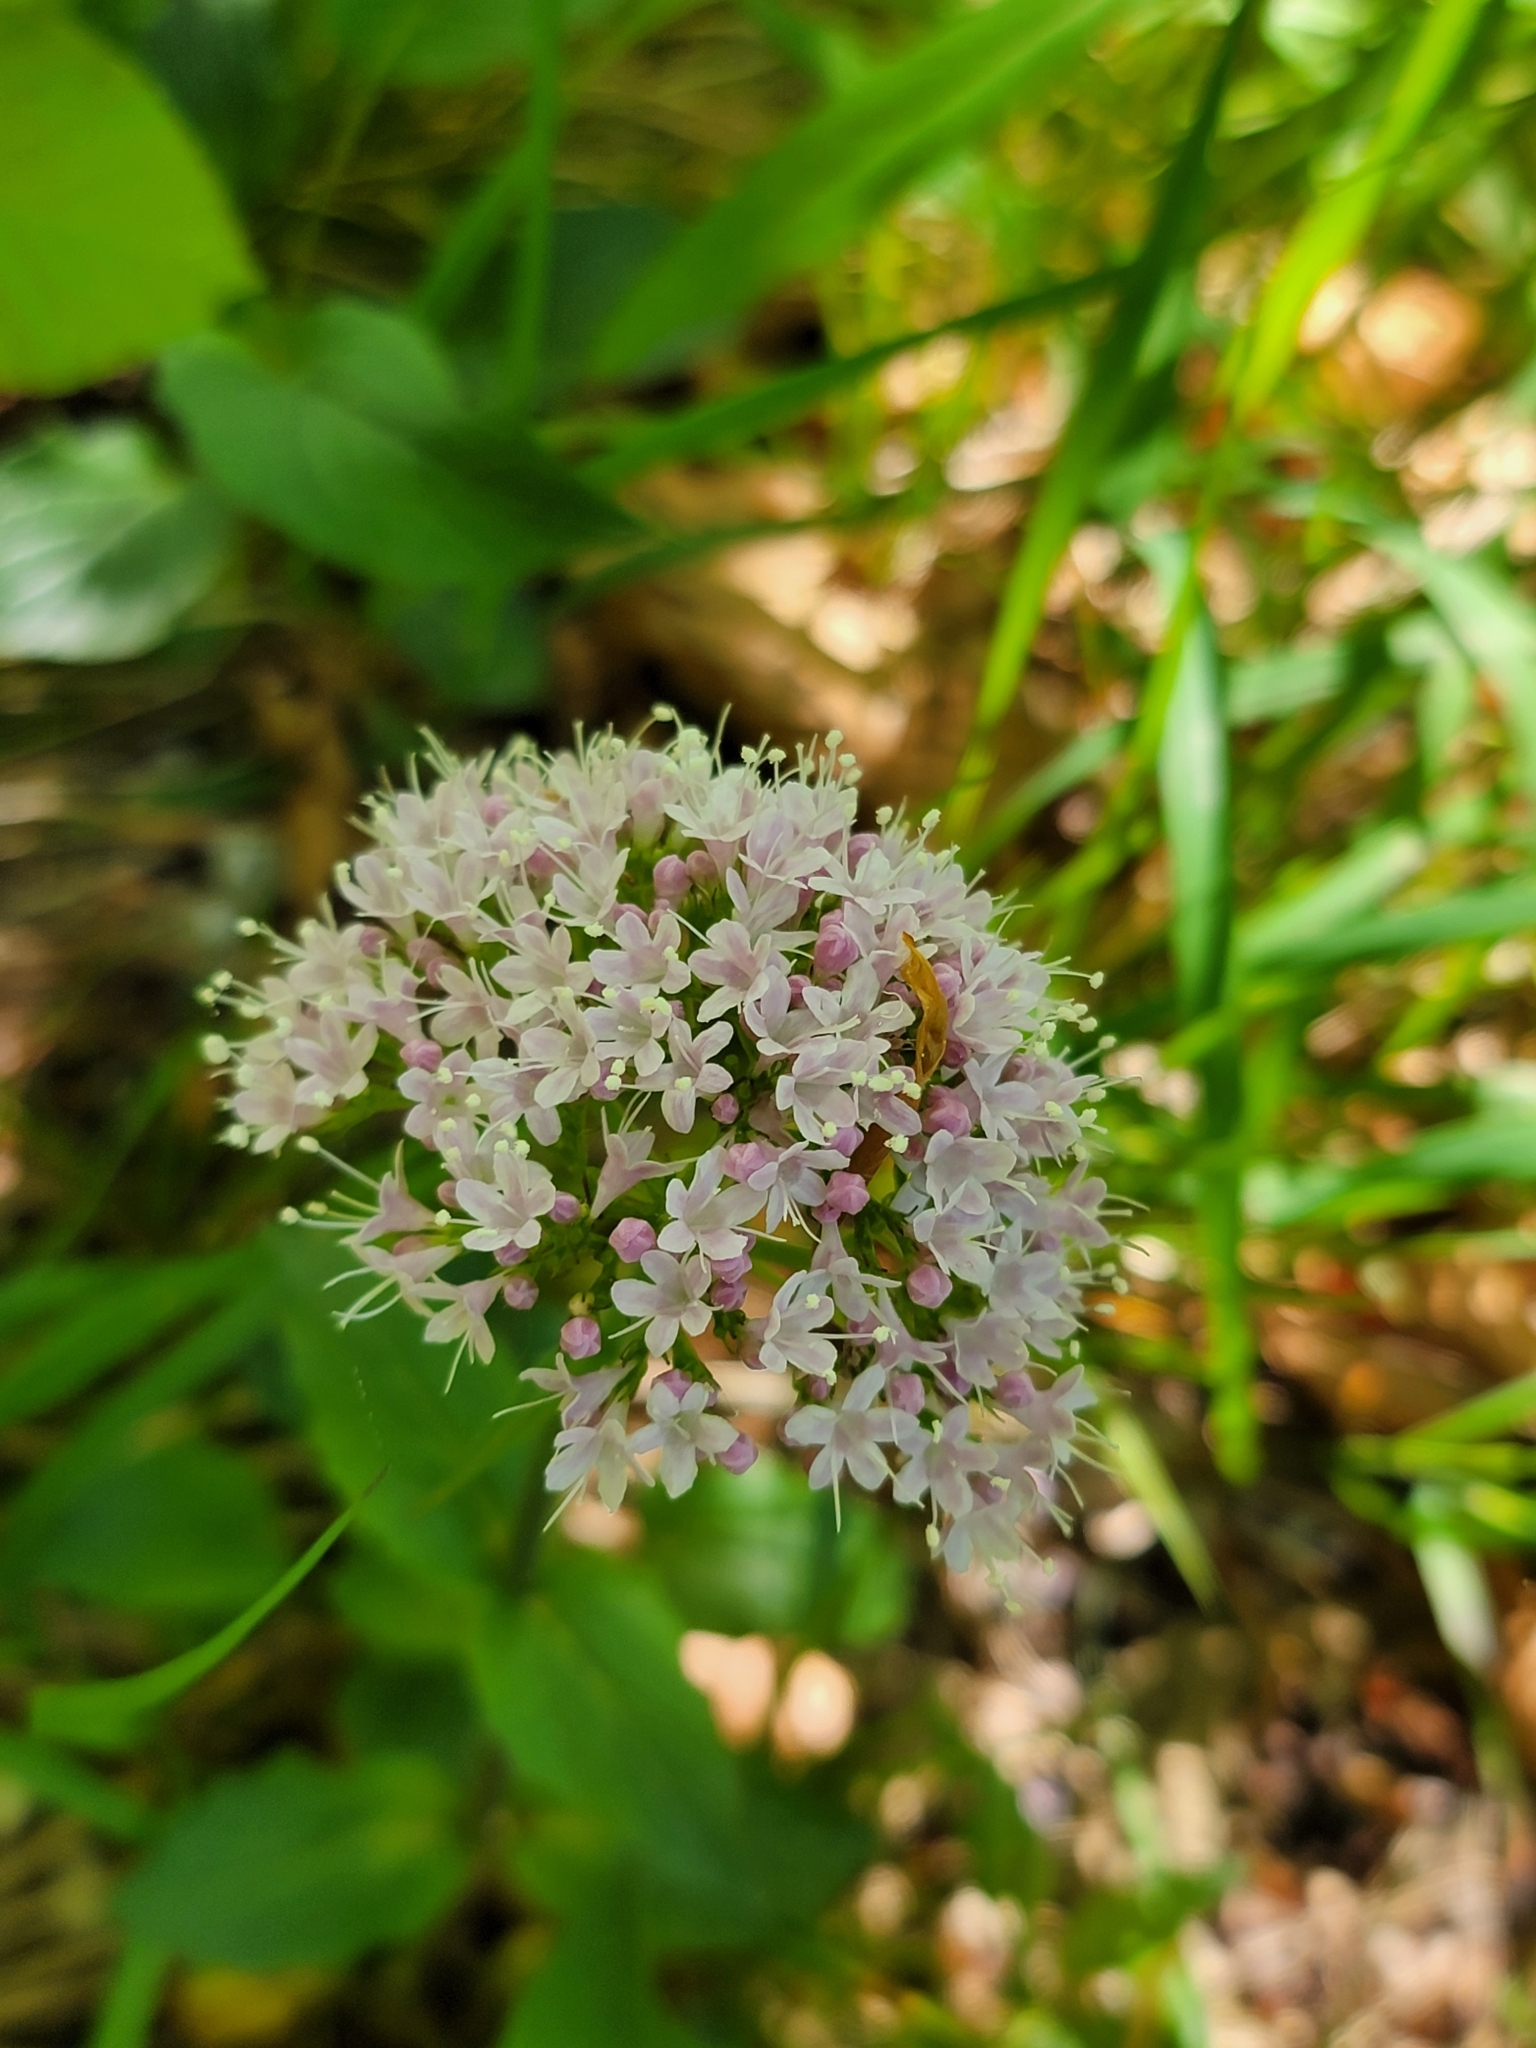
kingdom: Plantae
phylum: Tracheophyta
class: Magnoliopsida
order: Dipsacales
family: Caprifoliaceae
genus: Valeriana
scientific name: Valeriana montana
